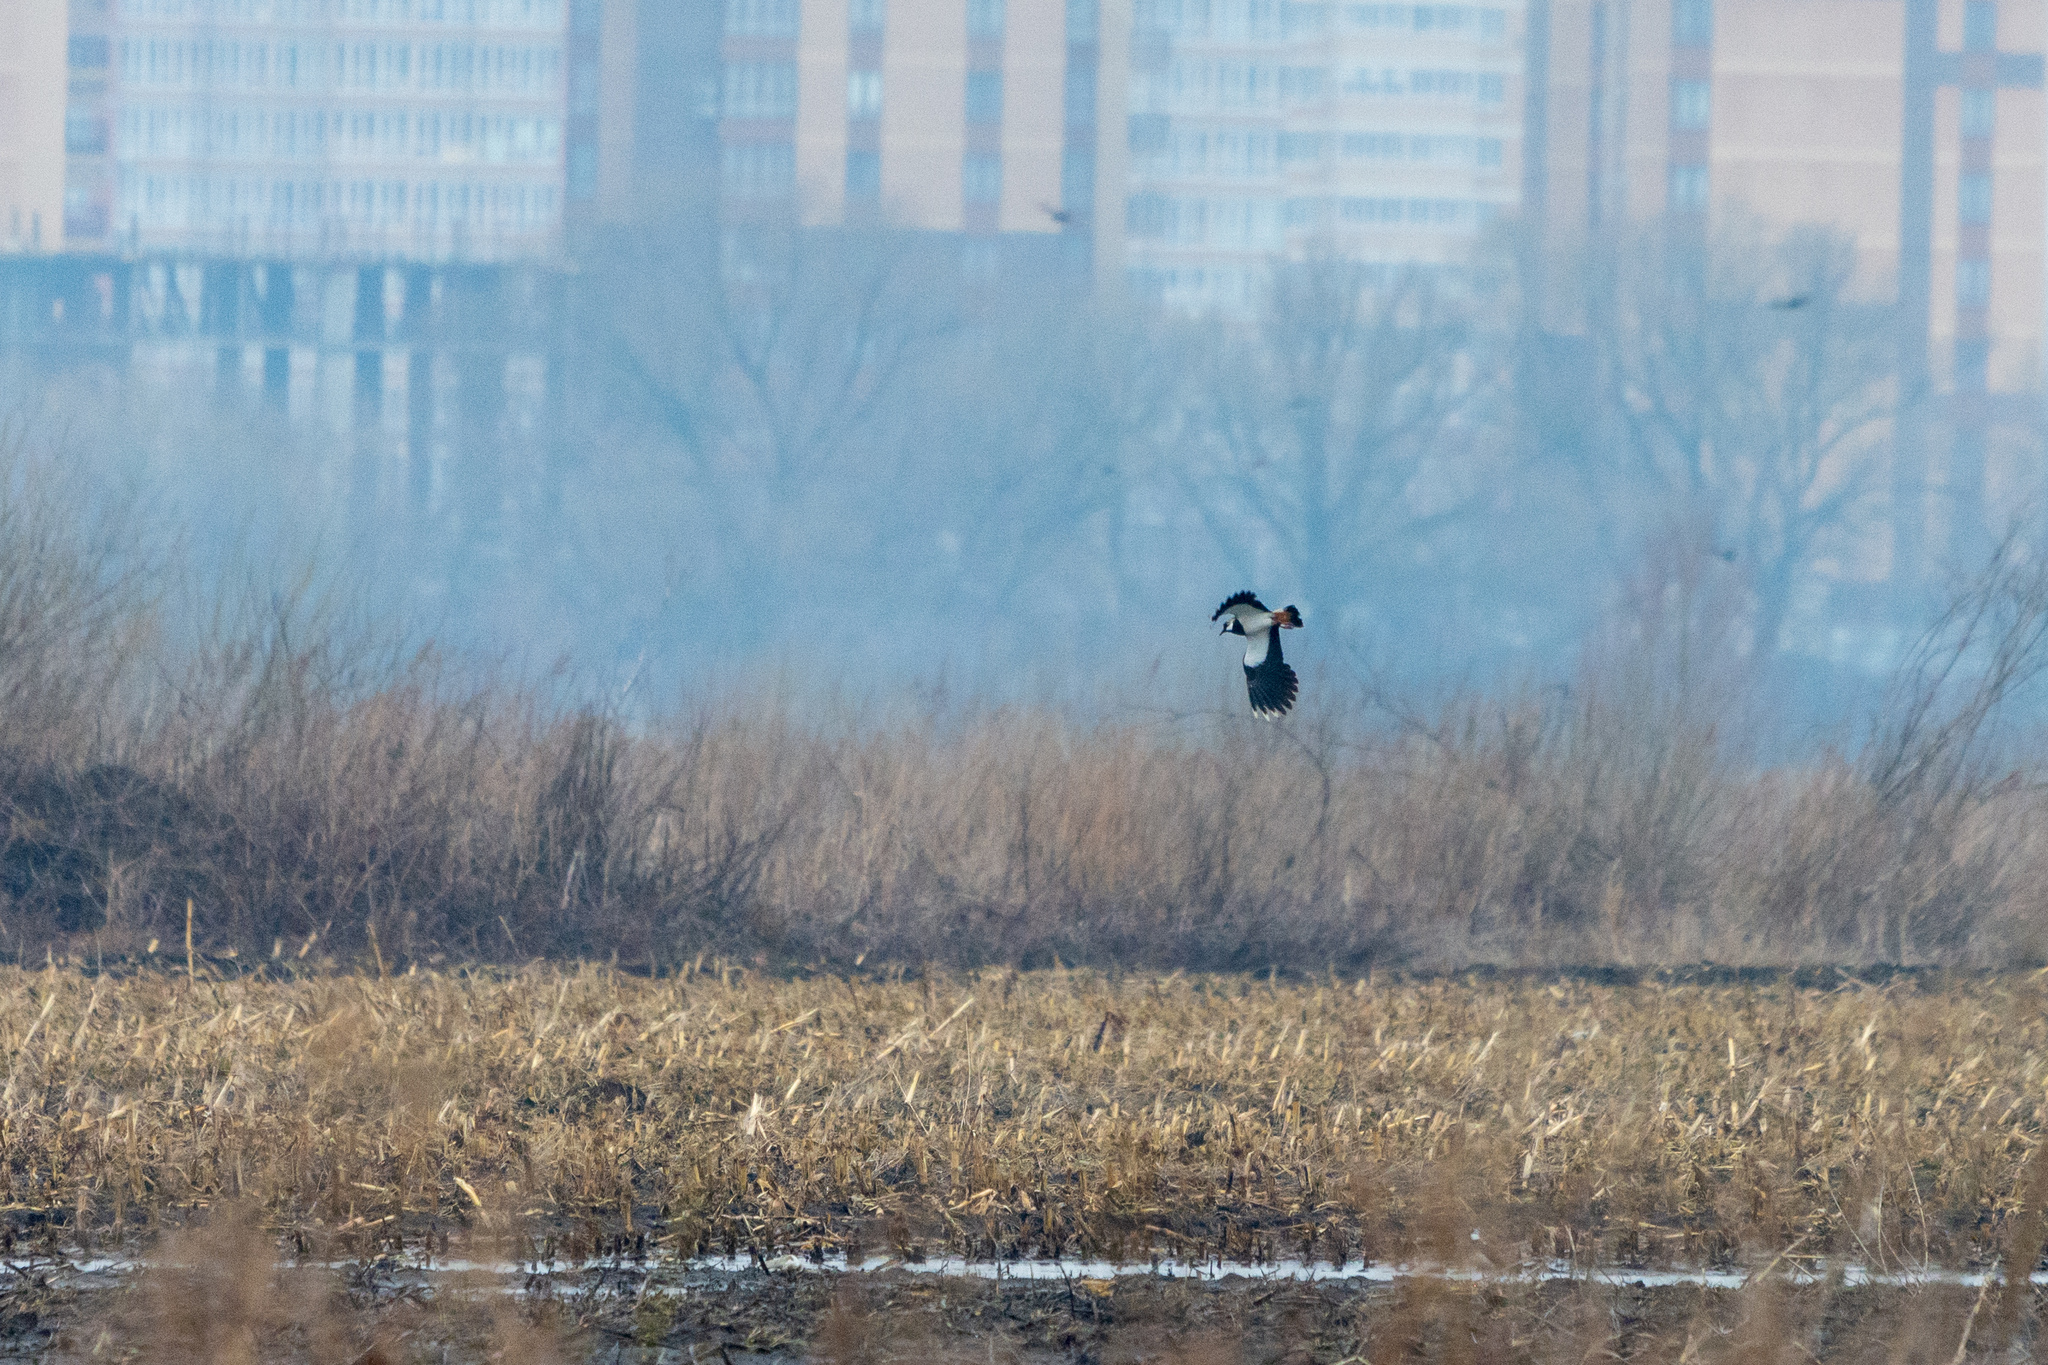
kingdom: Animalia
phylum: Chordata
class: Aves
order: Charadriiformes
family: Charadriidae
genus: Vanellus
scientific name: Vanellus vanellus
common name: Northern lapwing
